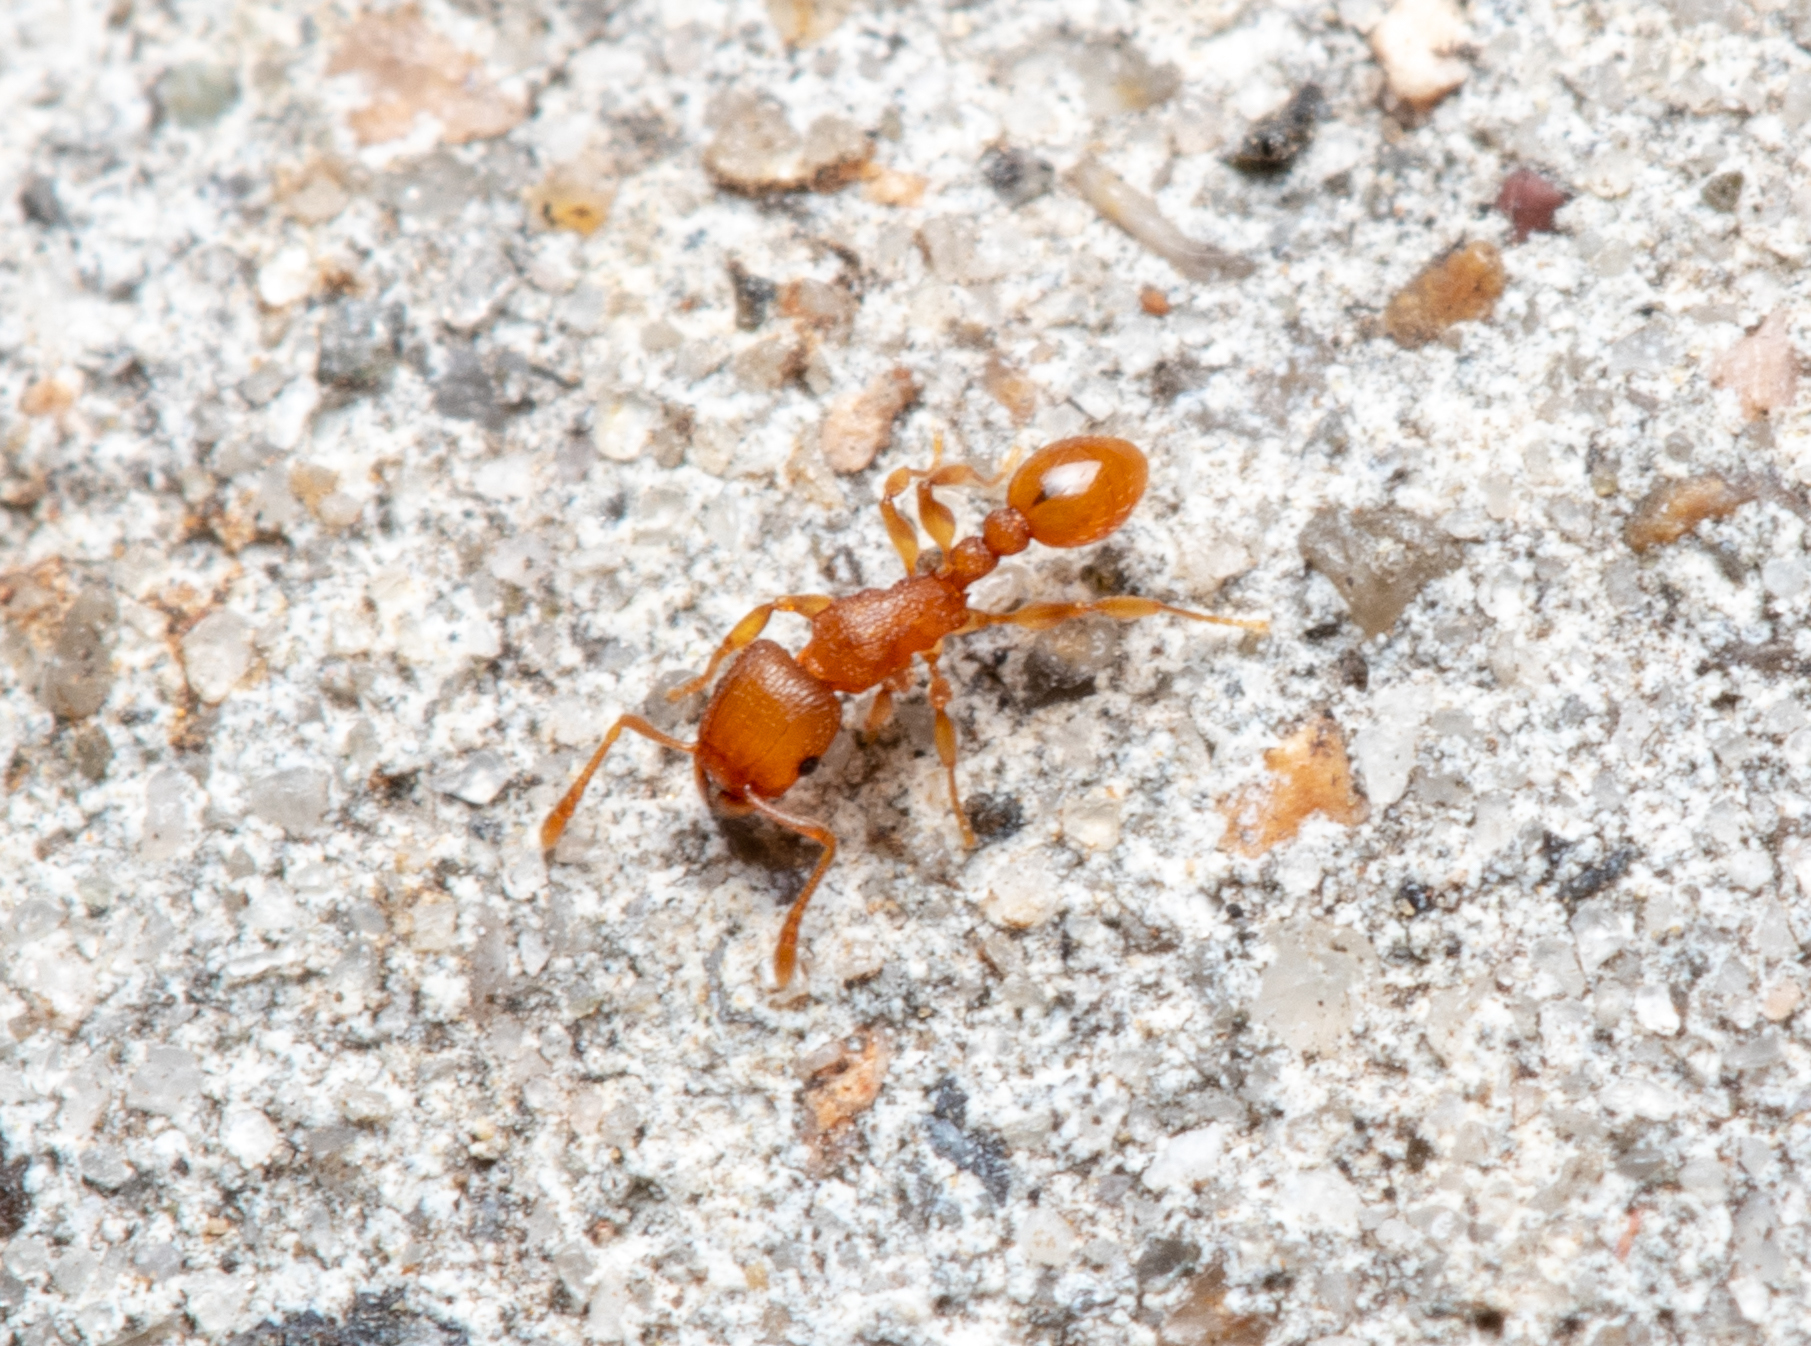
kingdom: Animalia
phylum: Arthropoda
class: Insecta
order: Hymenoptera
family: Formicidae
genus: Tetramorium
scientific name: Tetramorium simillimum
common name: Ant
